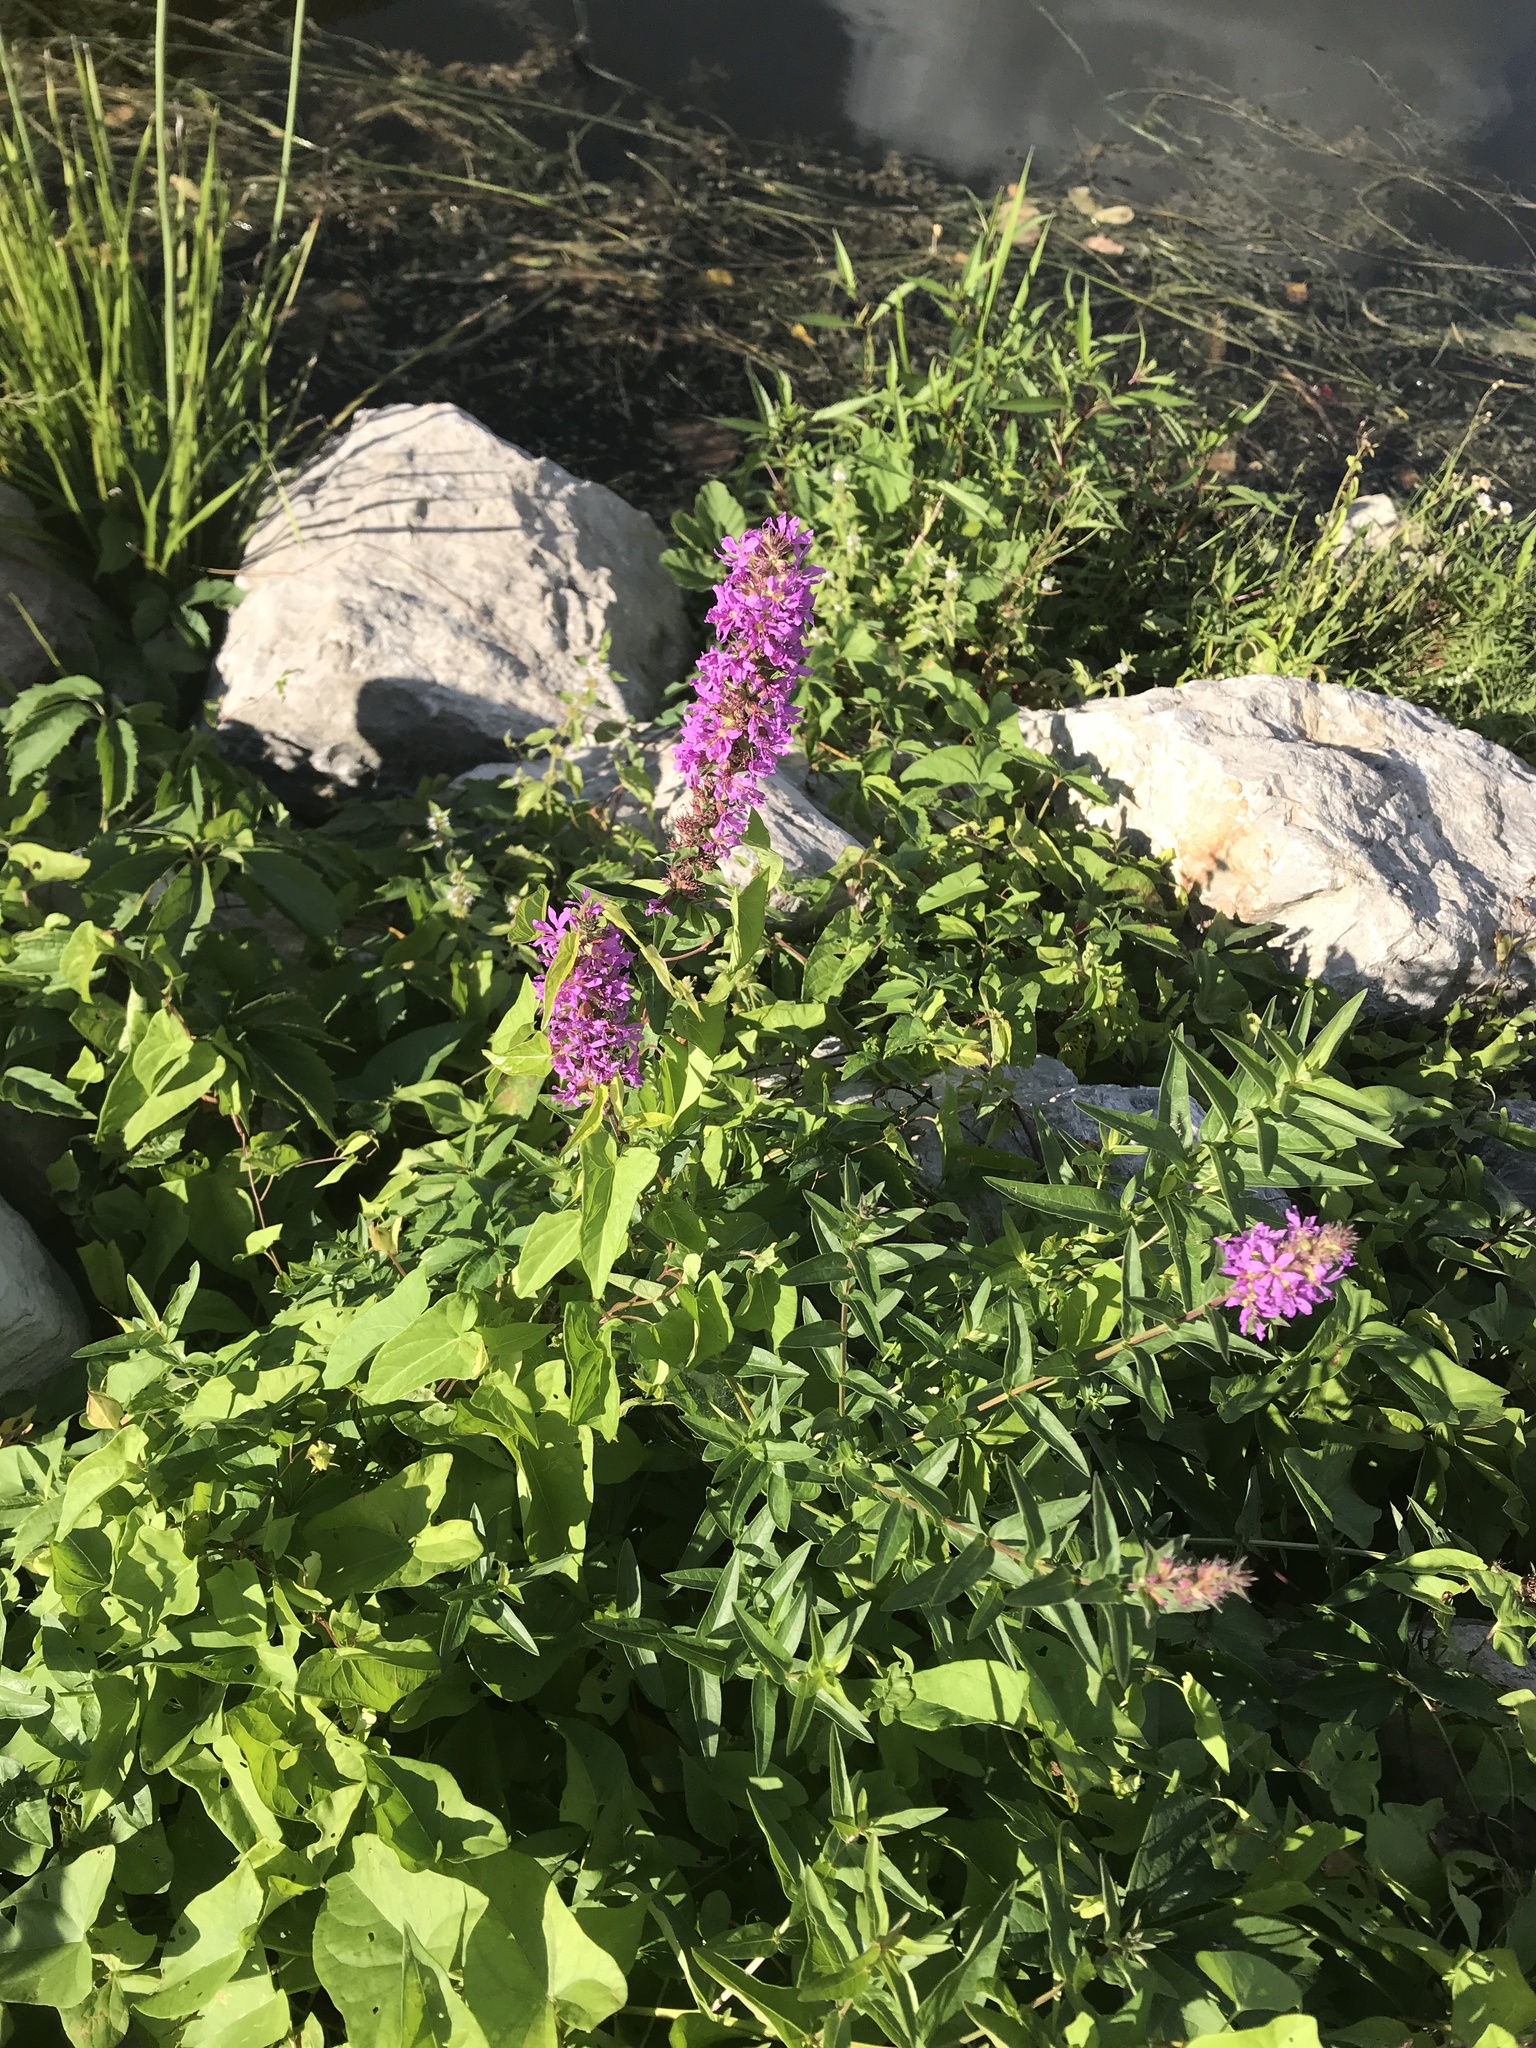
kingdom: Plantae
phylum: Tracheophyta
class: Magnoliopsida
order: Myrtales
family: Lythraceae
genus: Lythrum
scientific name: Lythrum salicaria
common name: Purple loosestrife
